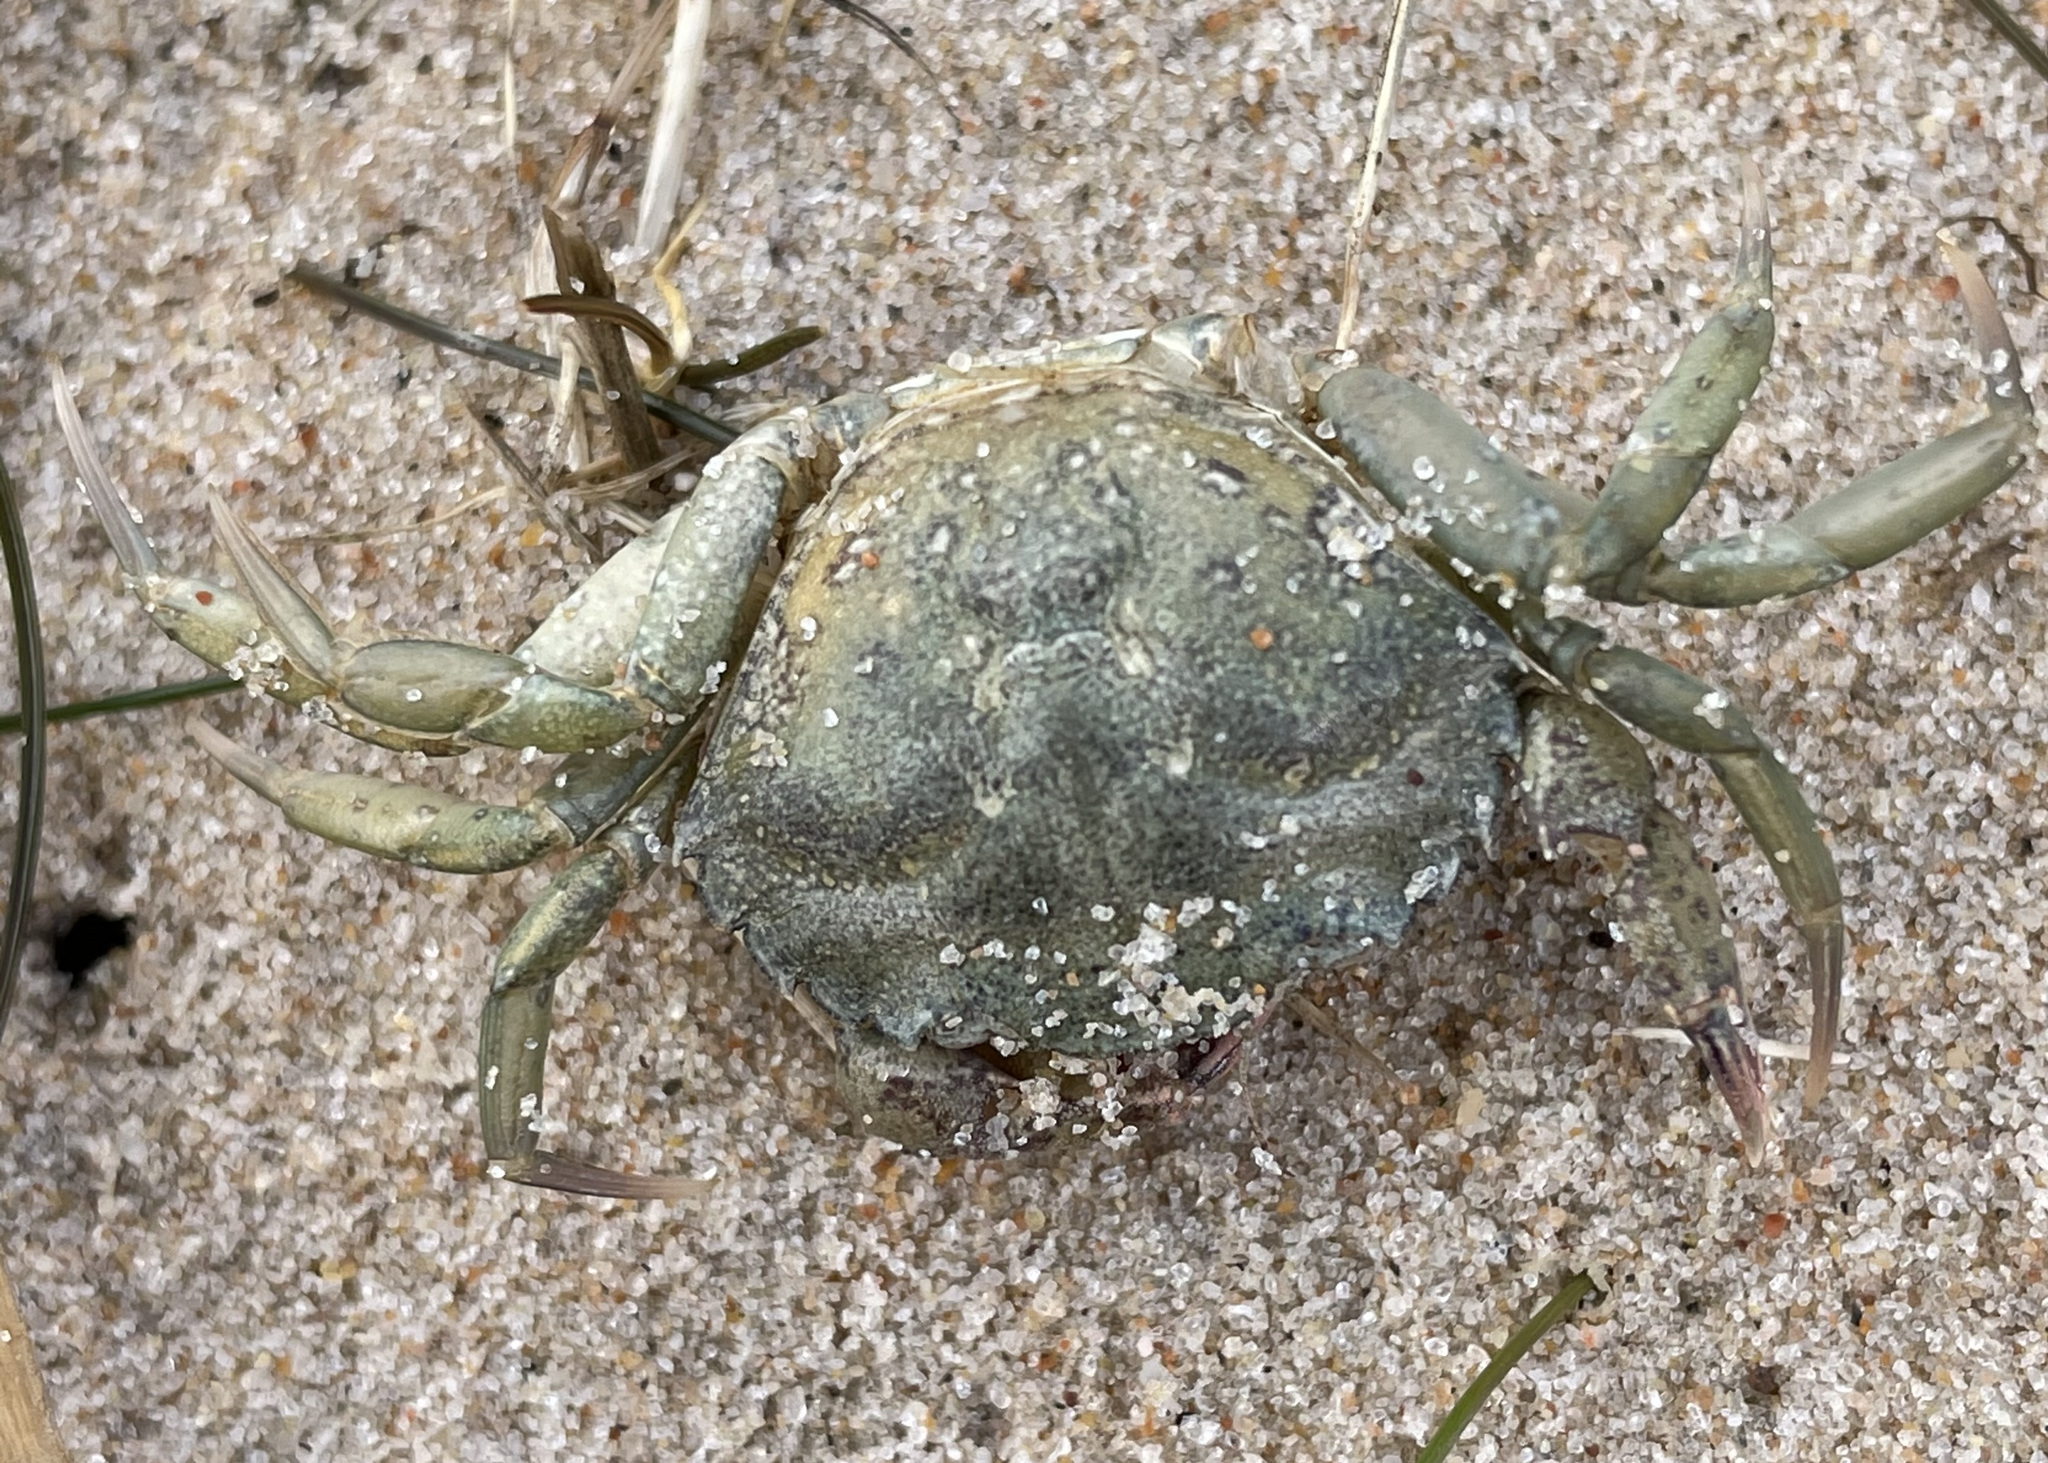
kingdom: Animalia
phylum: Arthropoda
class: Malacostraca
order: Decapoda
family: Carcinidae
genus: Carcinus
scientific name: Carcinus maenas
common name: European green crab
